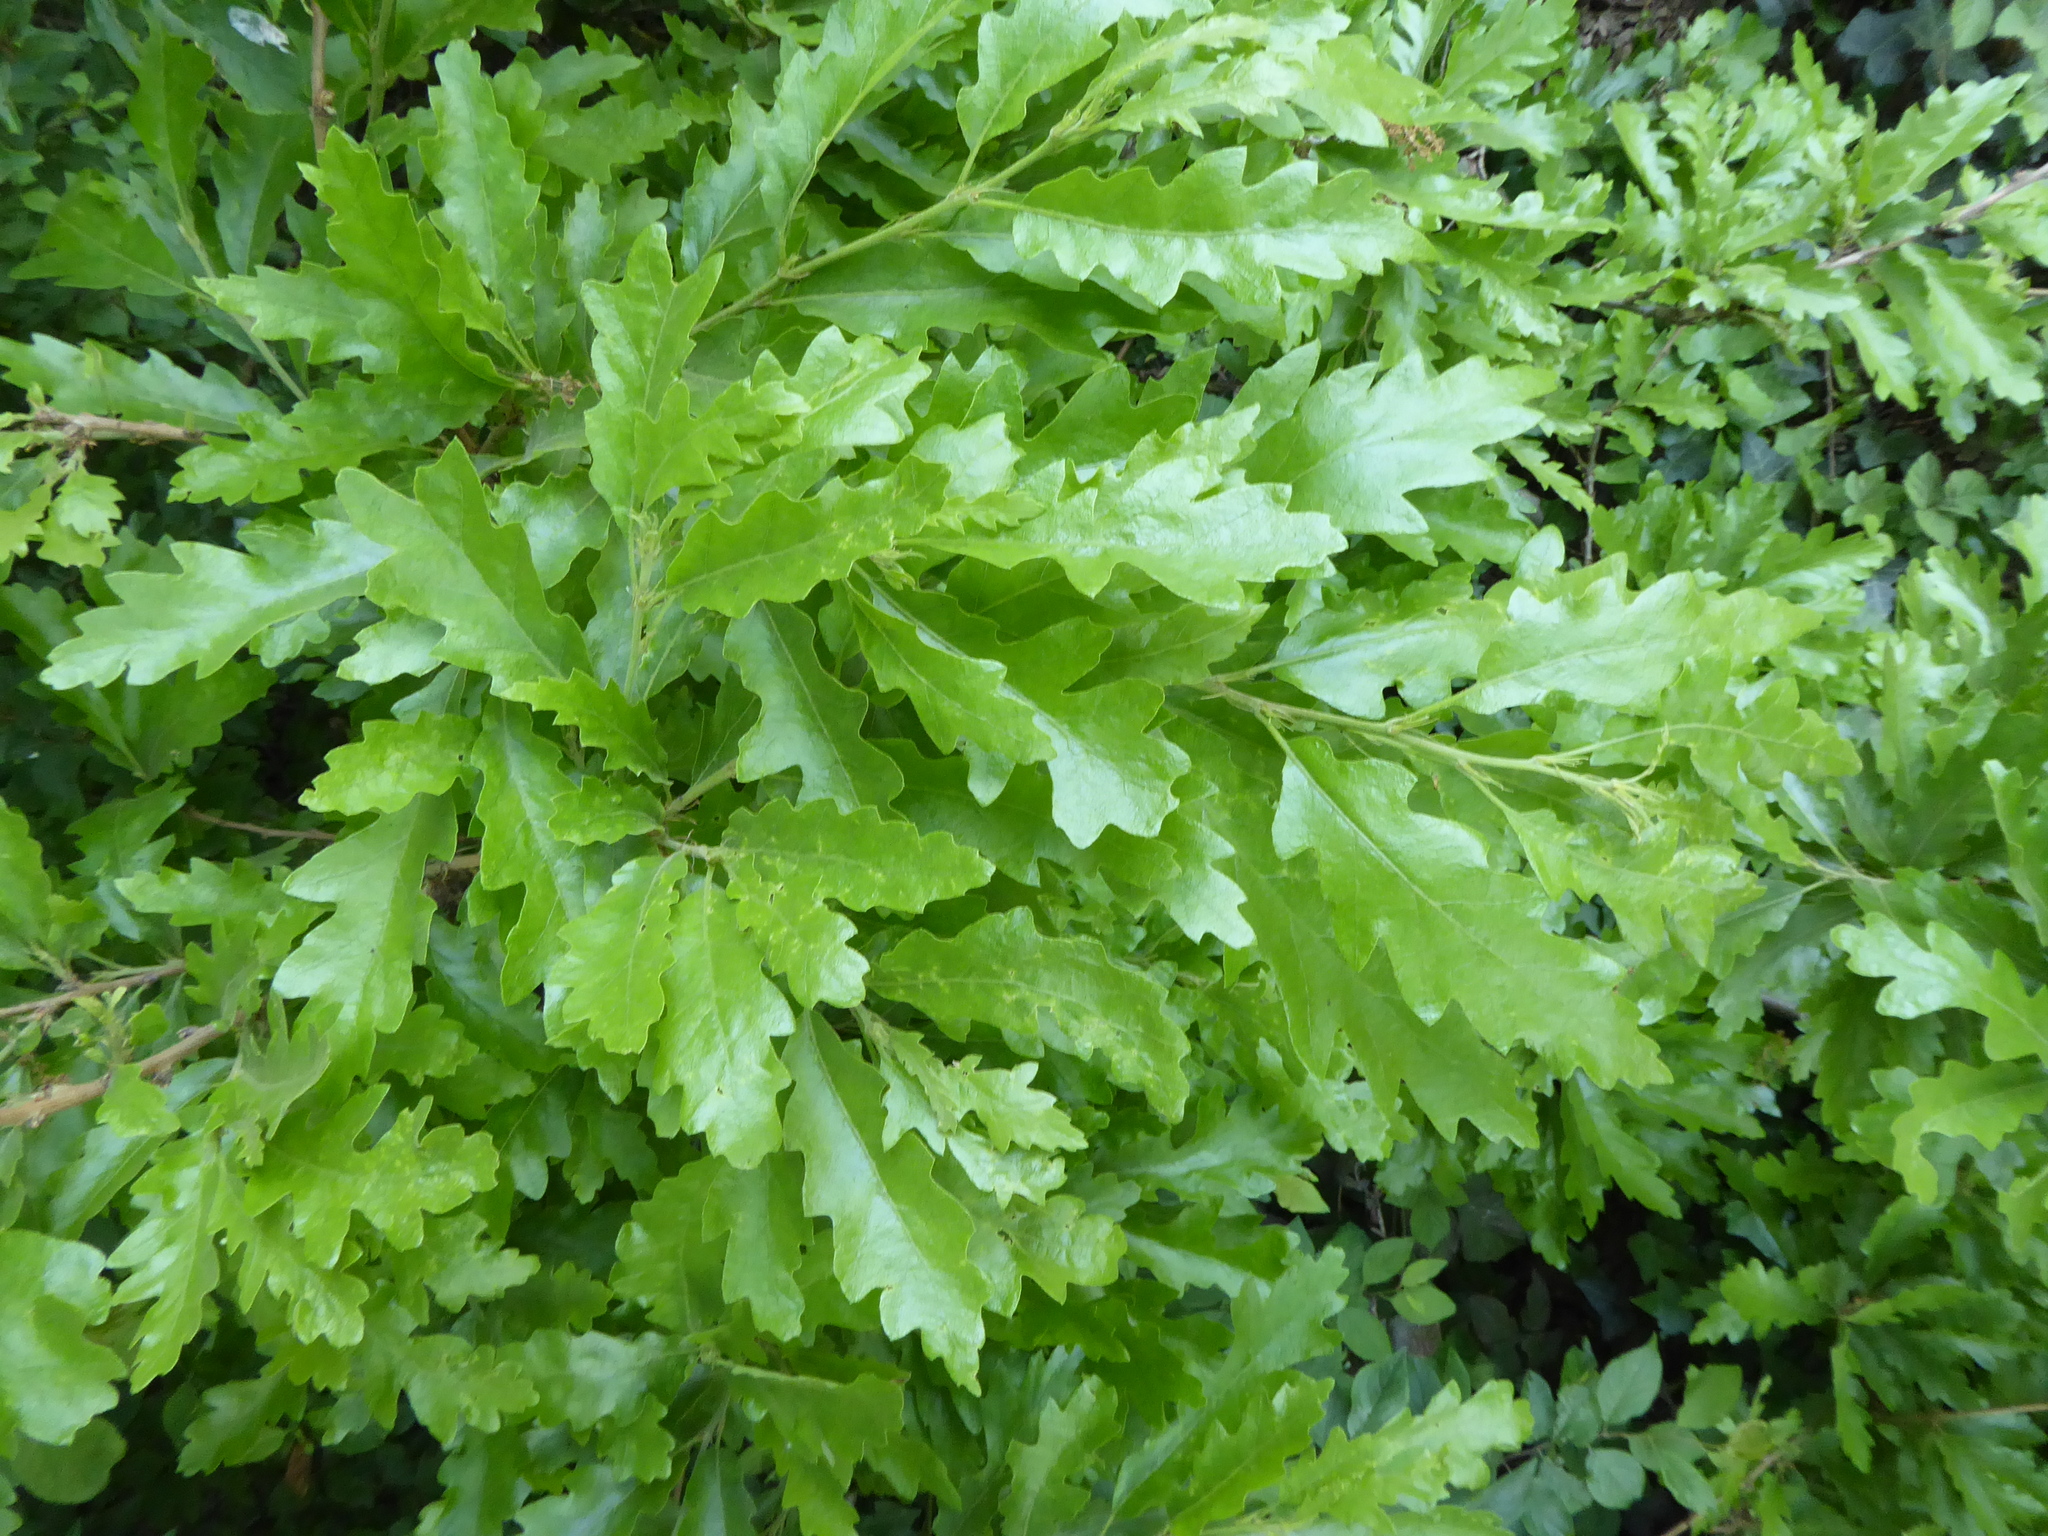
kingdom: Plantae
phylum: Tracheophyta
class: Magnoliopsida
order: Fagales
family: Fagaceae
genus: Quercus
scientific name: Quercus cerris
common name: Turkey oak
